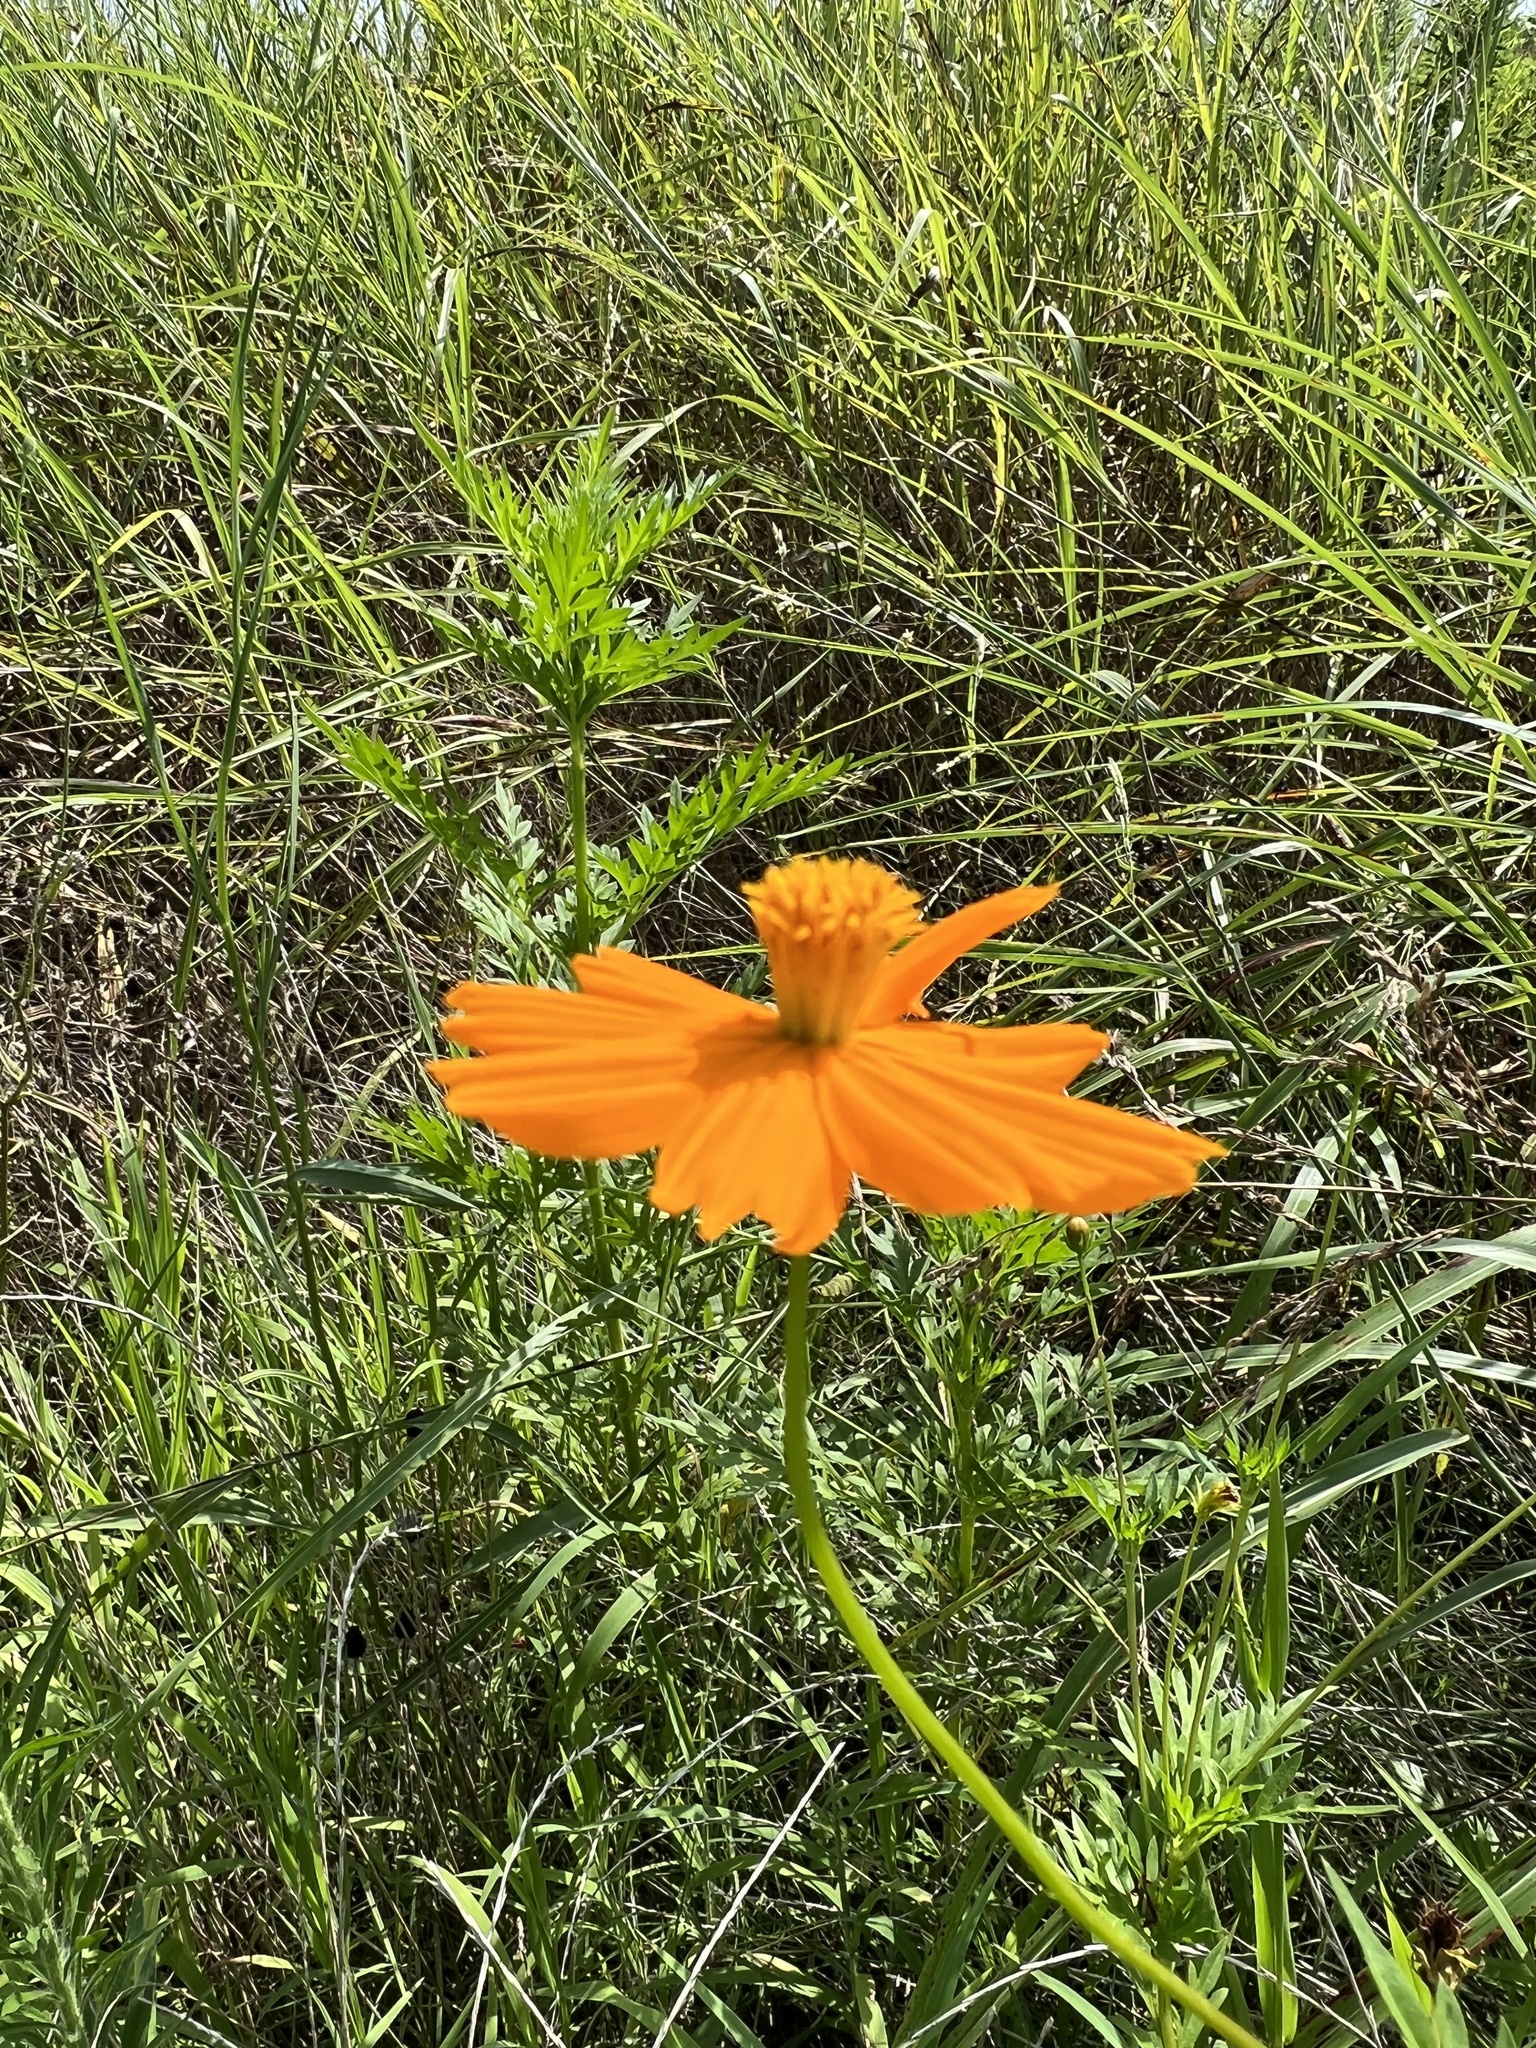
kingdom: Plantae
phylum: Tracheophyta
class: Magnoliopsida
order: Asterales
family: Asteraceae
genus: Cosmos
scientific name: Cosmos sulphureus
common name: Sulphur cosmos
